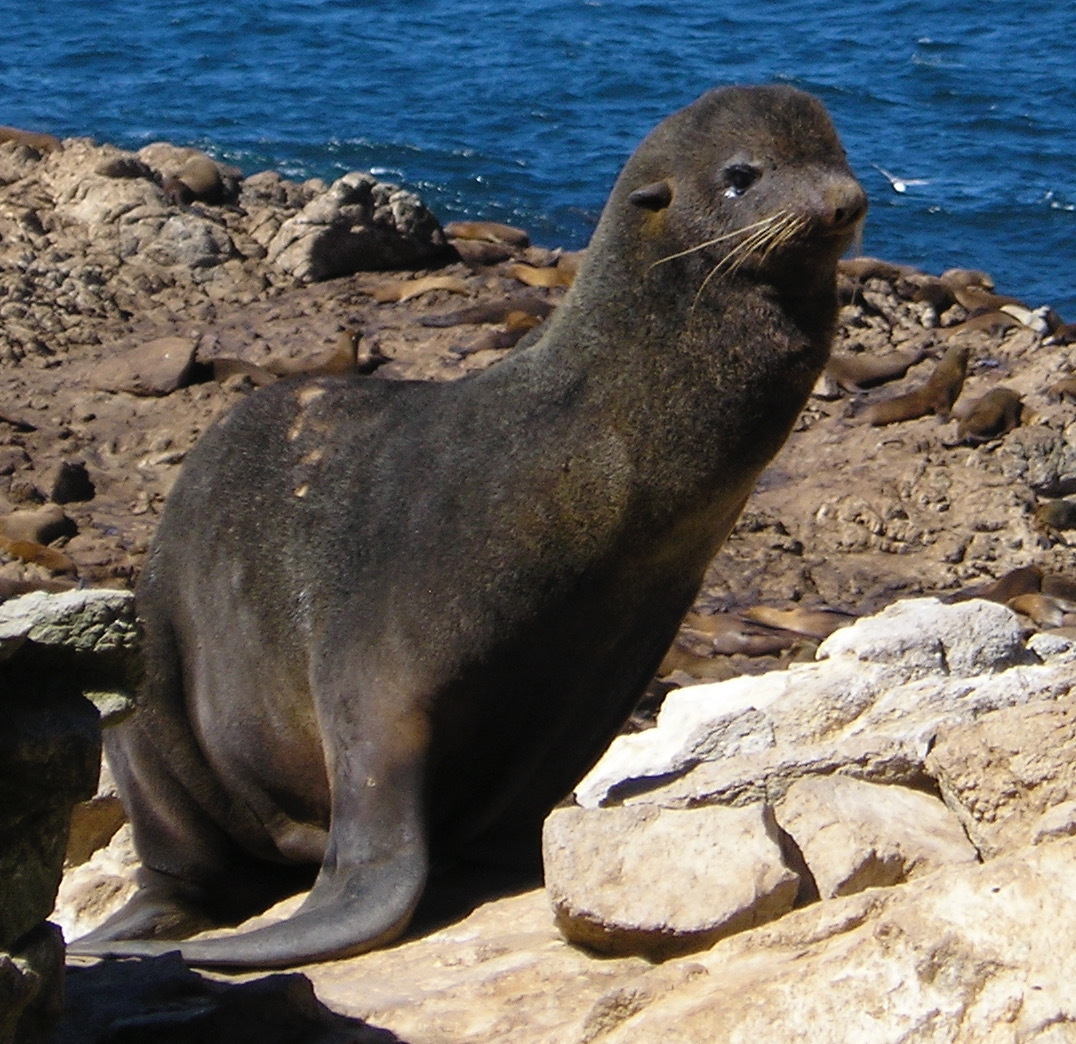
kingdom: Animalia
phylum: Chordata
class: Mammalia
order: Carnivora
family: Otariidae
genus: Callorhinus
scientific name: Callorhinus ursinus
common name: Northern fur seal
